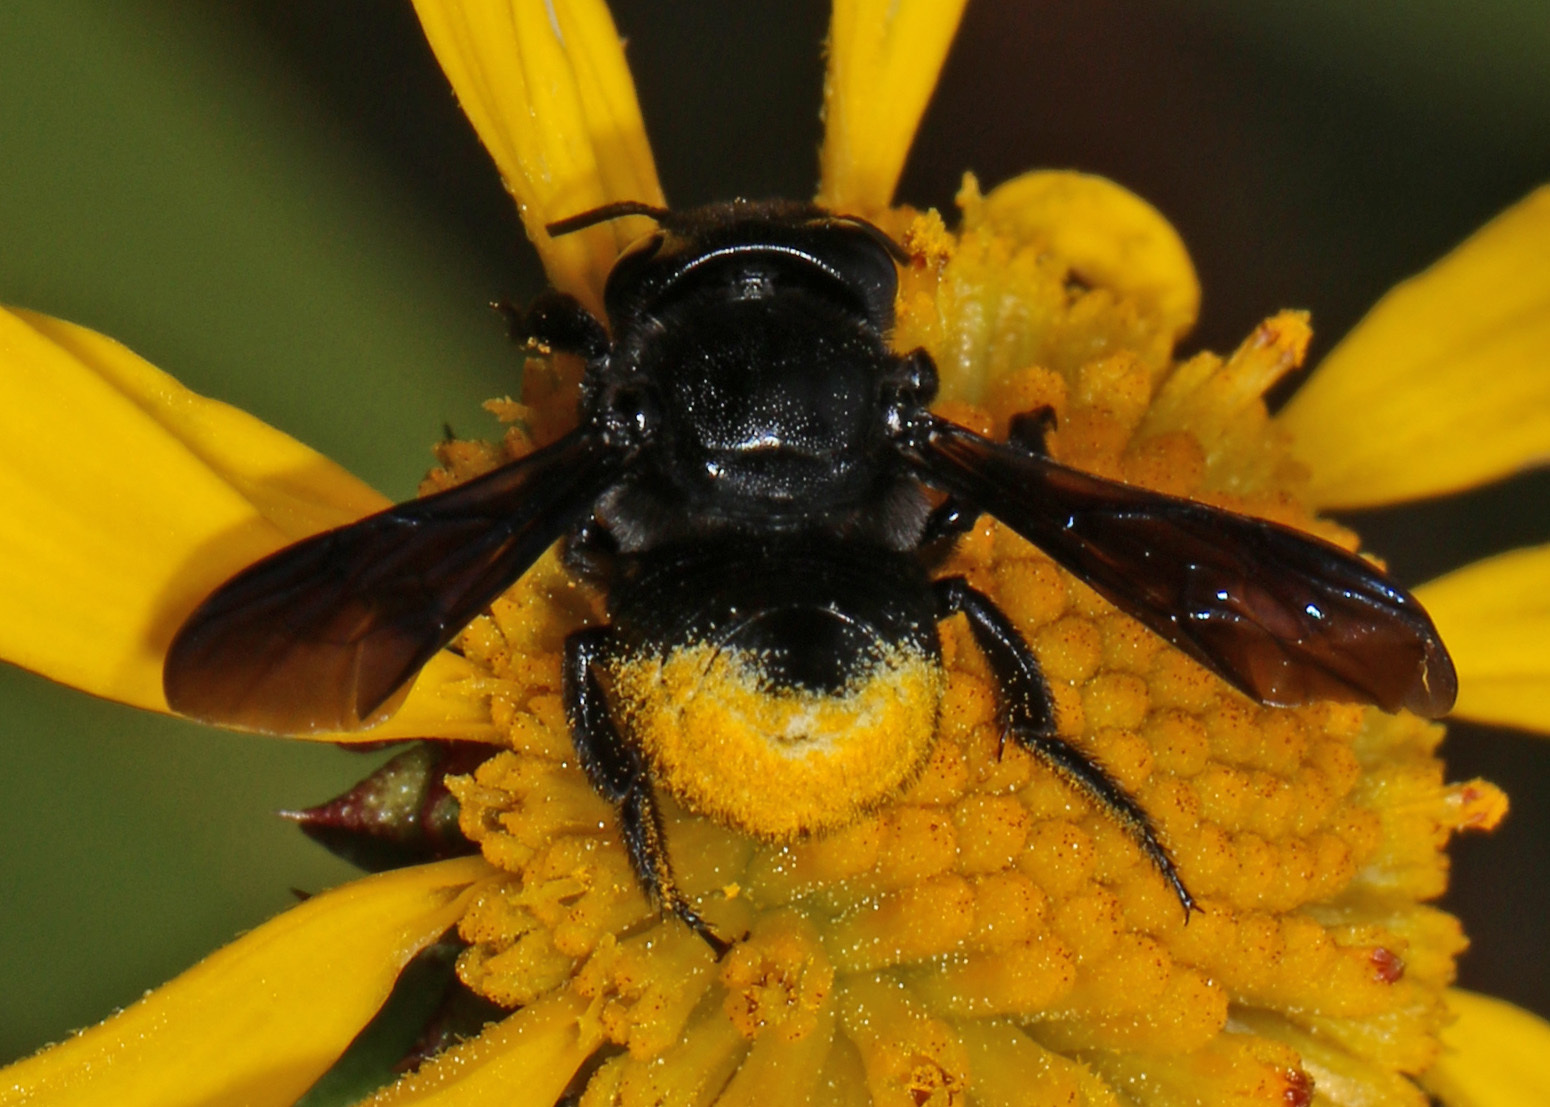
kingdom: Animalia
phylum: Arthropoda
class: Insecta
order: Hymenoptera
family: Megachilidae
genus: Megachile
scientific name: Megachile xylocopoides
